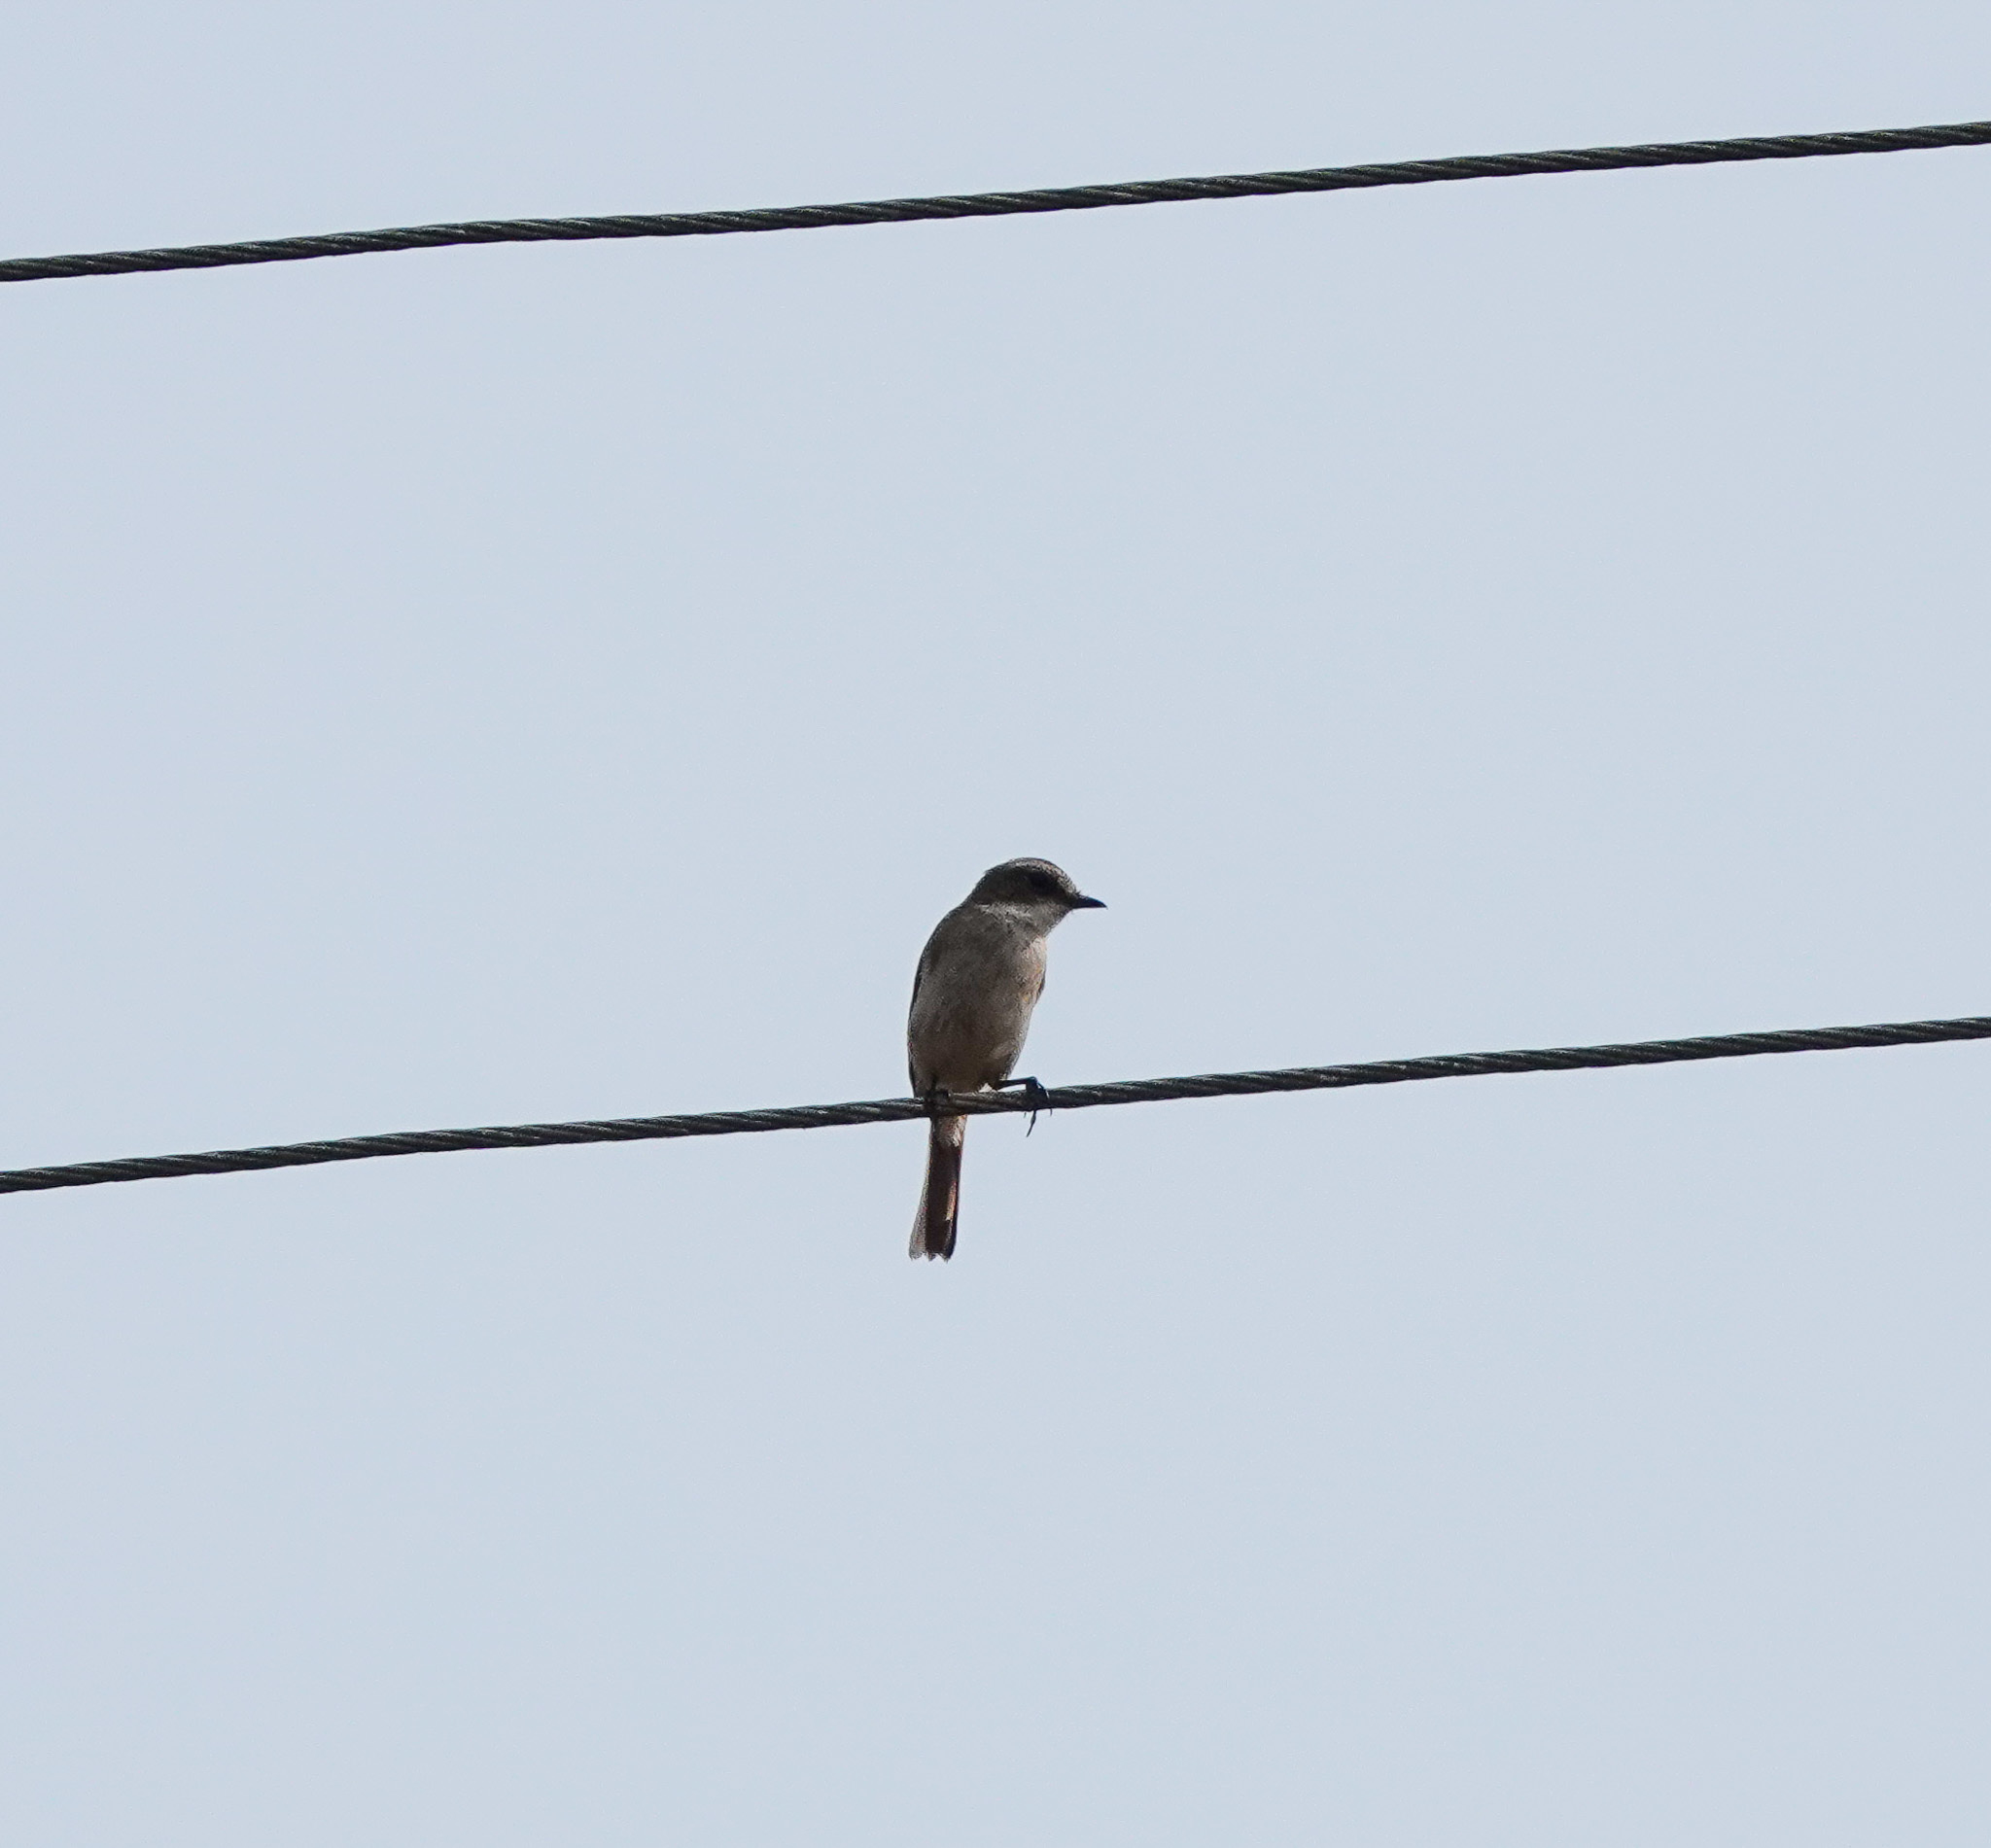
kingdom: Animalia
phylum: Chordata
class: Aves
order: Passeriformes
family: Muscicapidae
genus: Saxicola
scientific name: Saxicola ferreus
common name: Grey bush chat
